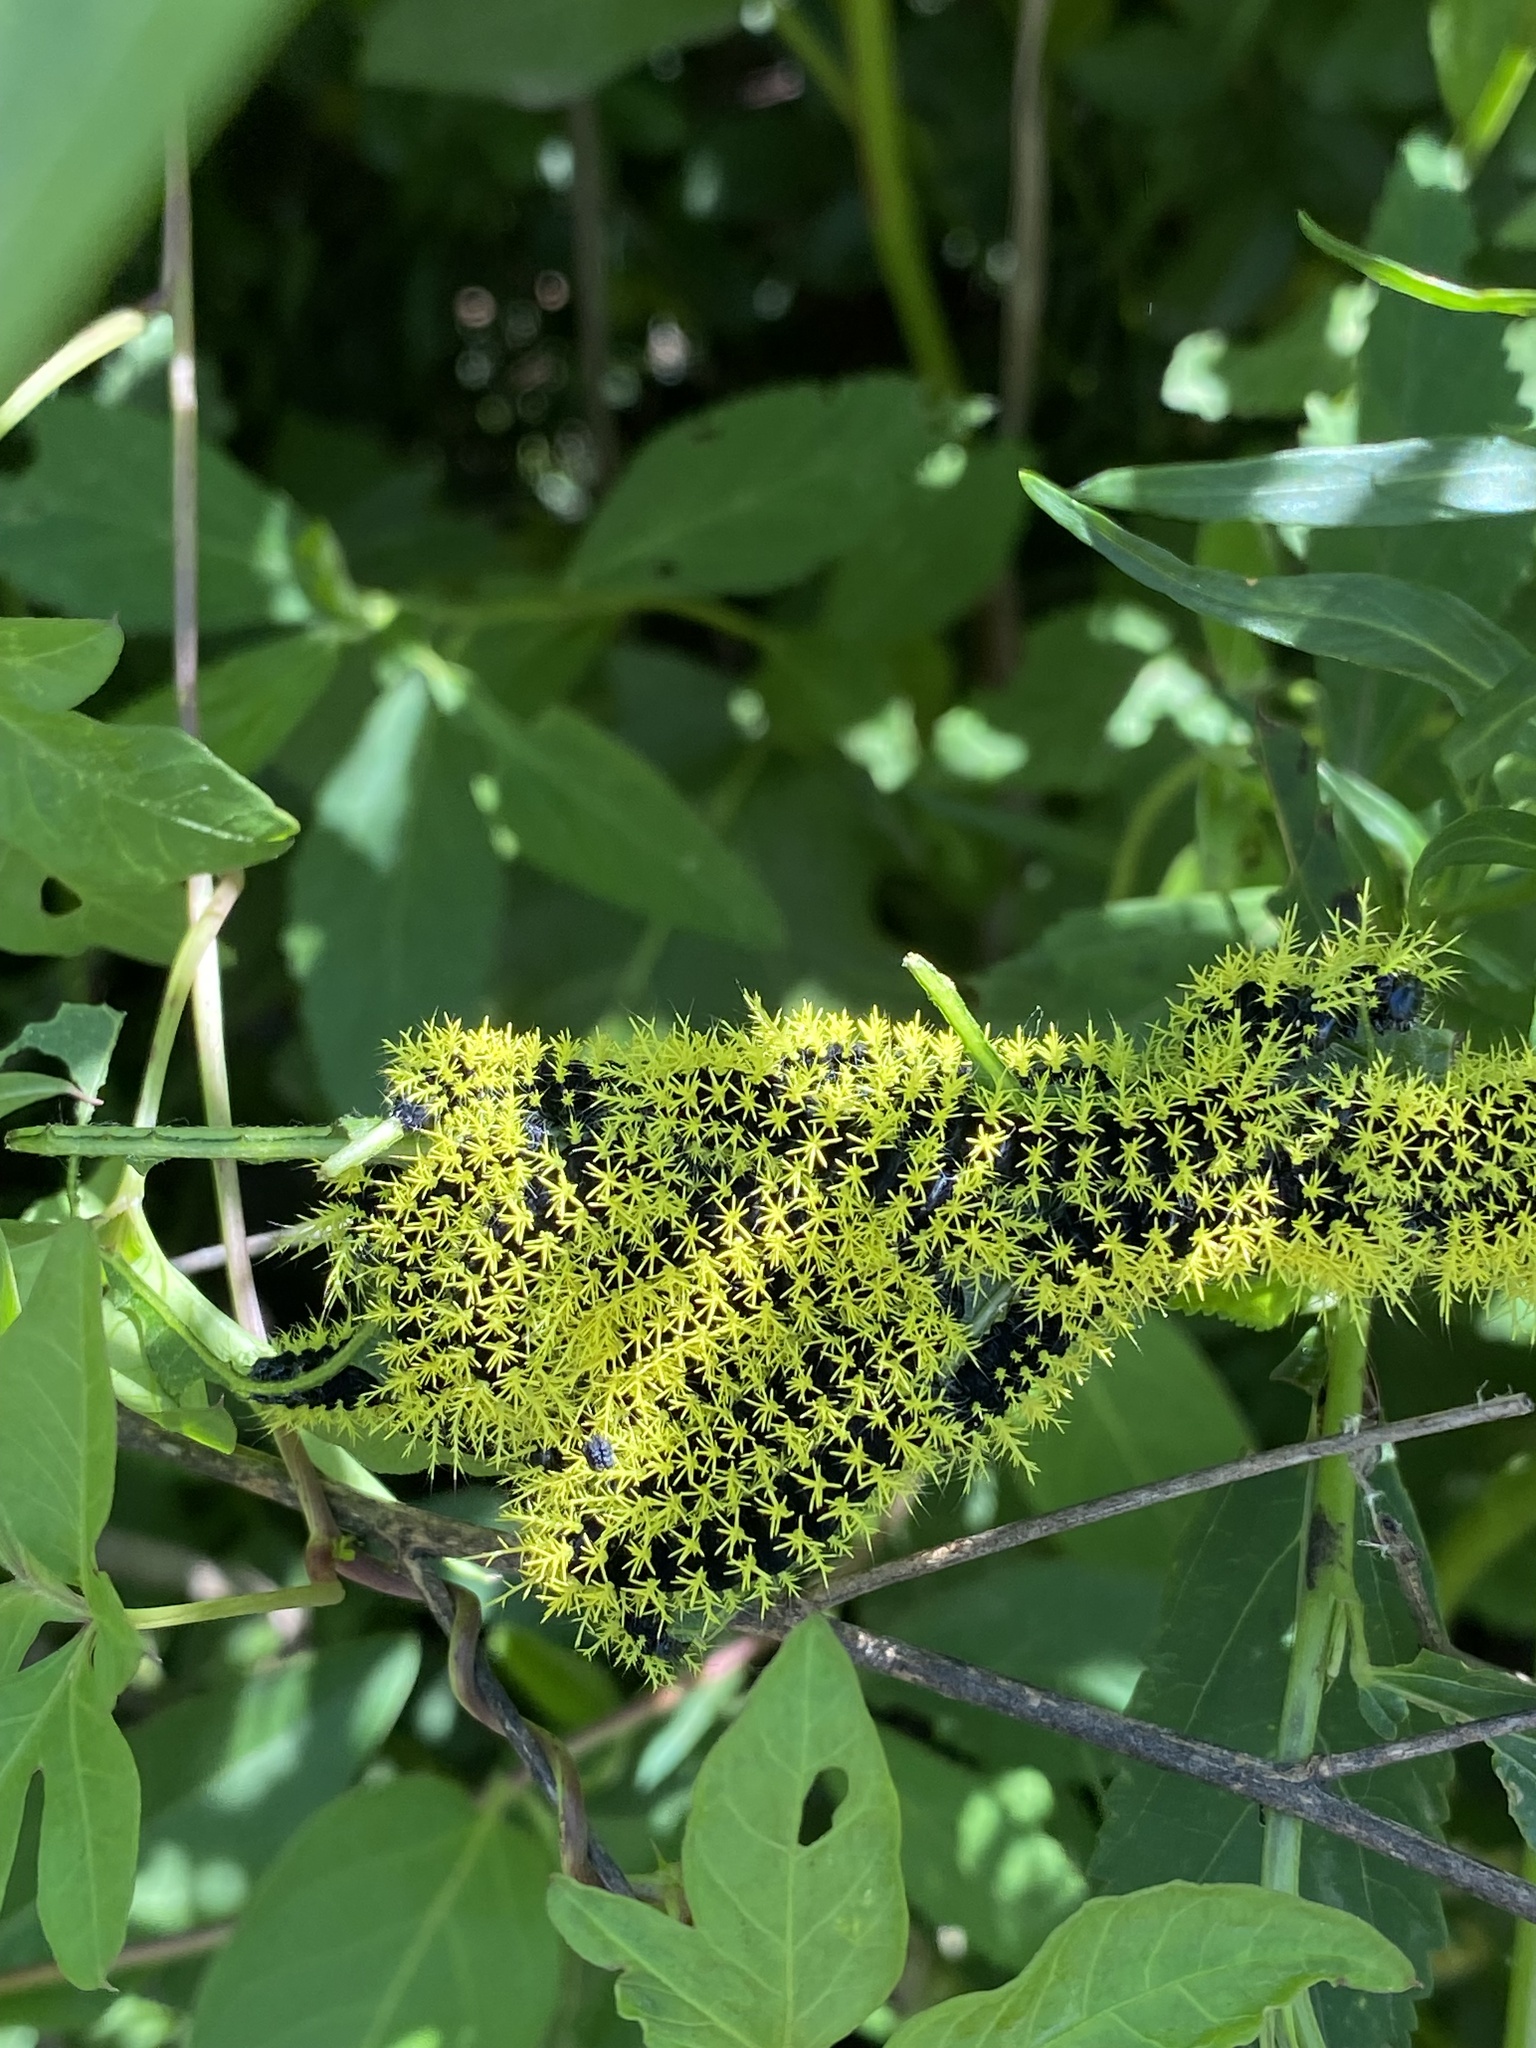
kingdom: Animalia
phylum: Arthropoda
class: Insecta
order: Lepidoptera
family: Saturniidae
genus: Leucanella
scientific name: Leucanella viridescens
